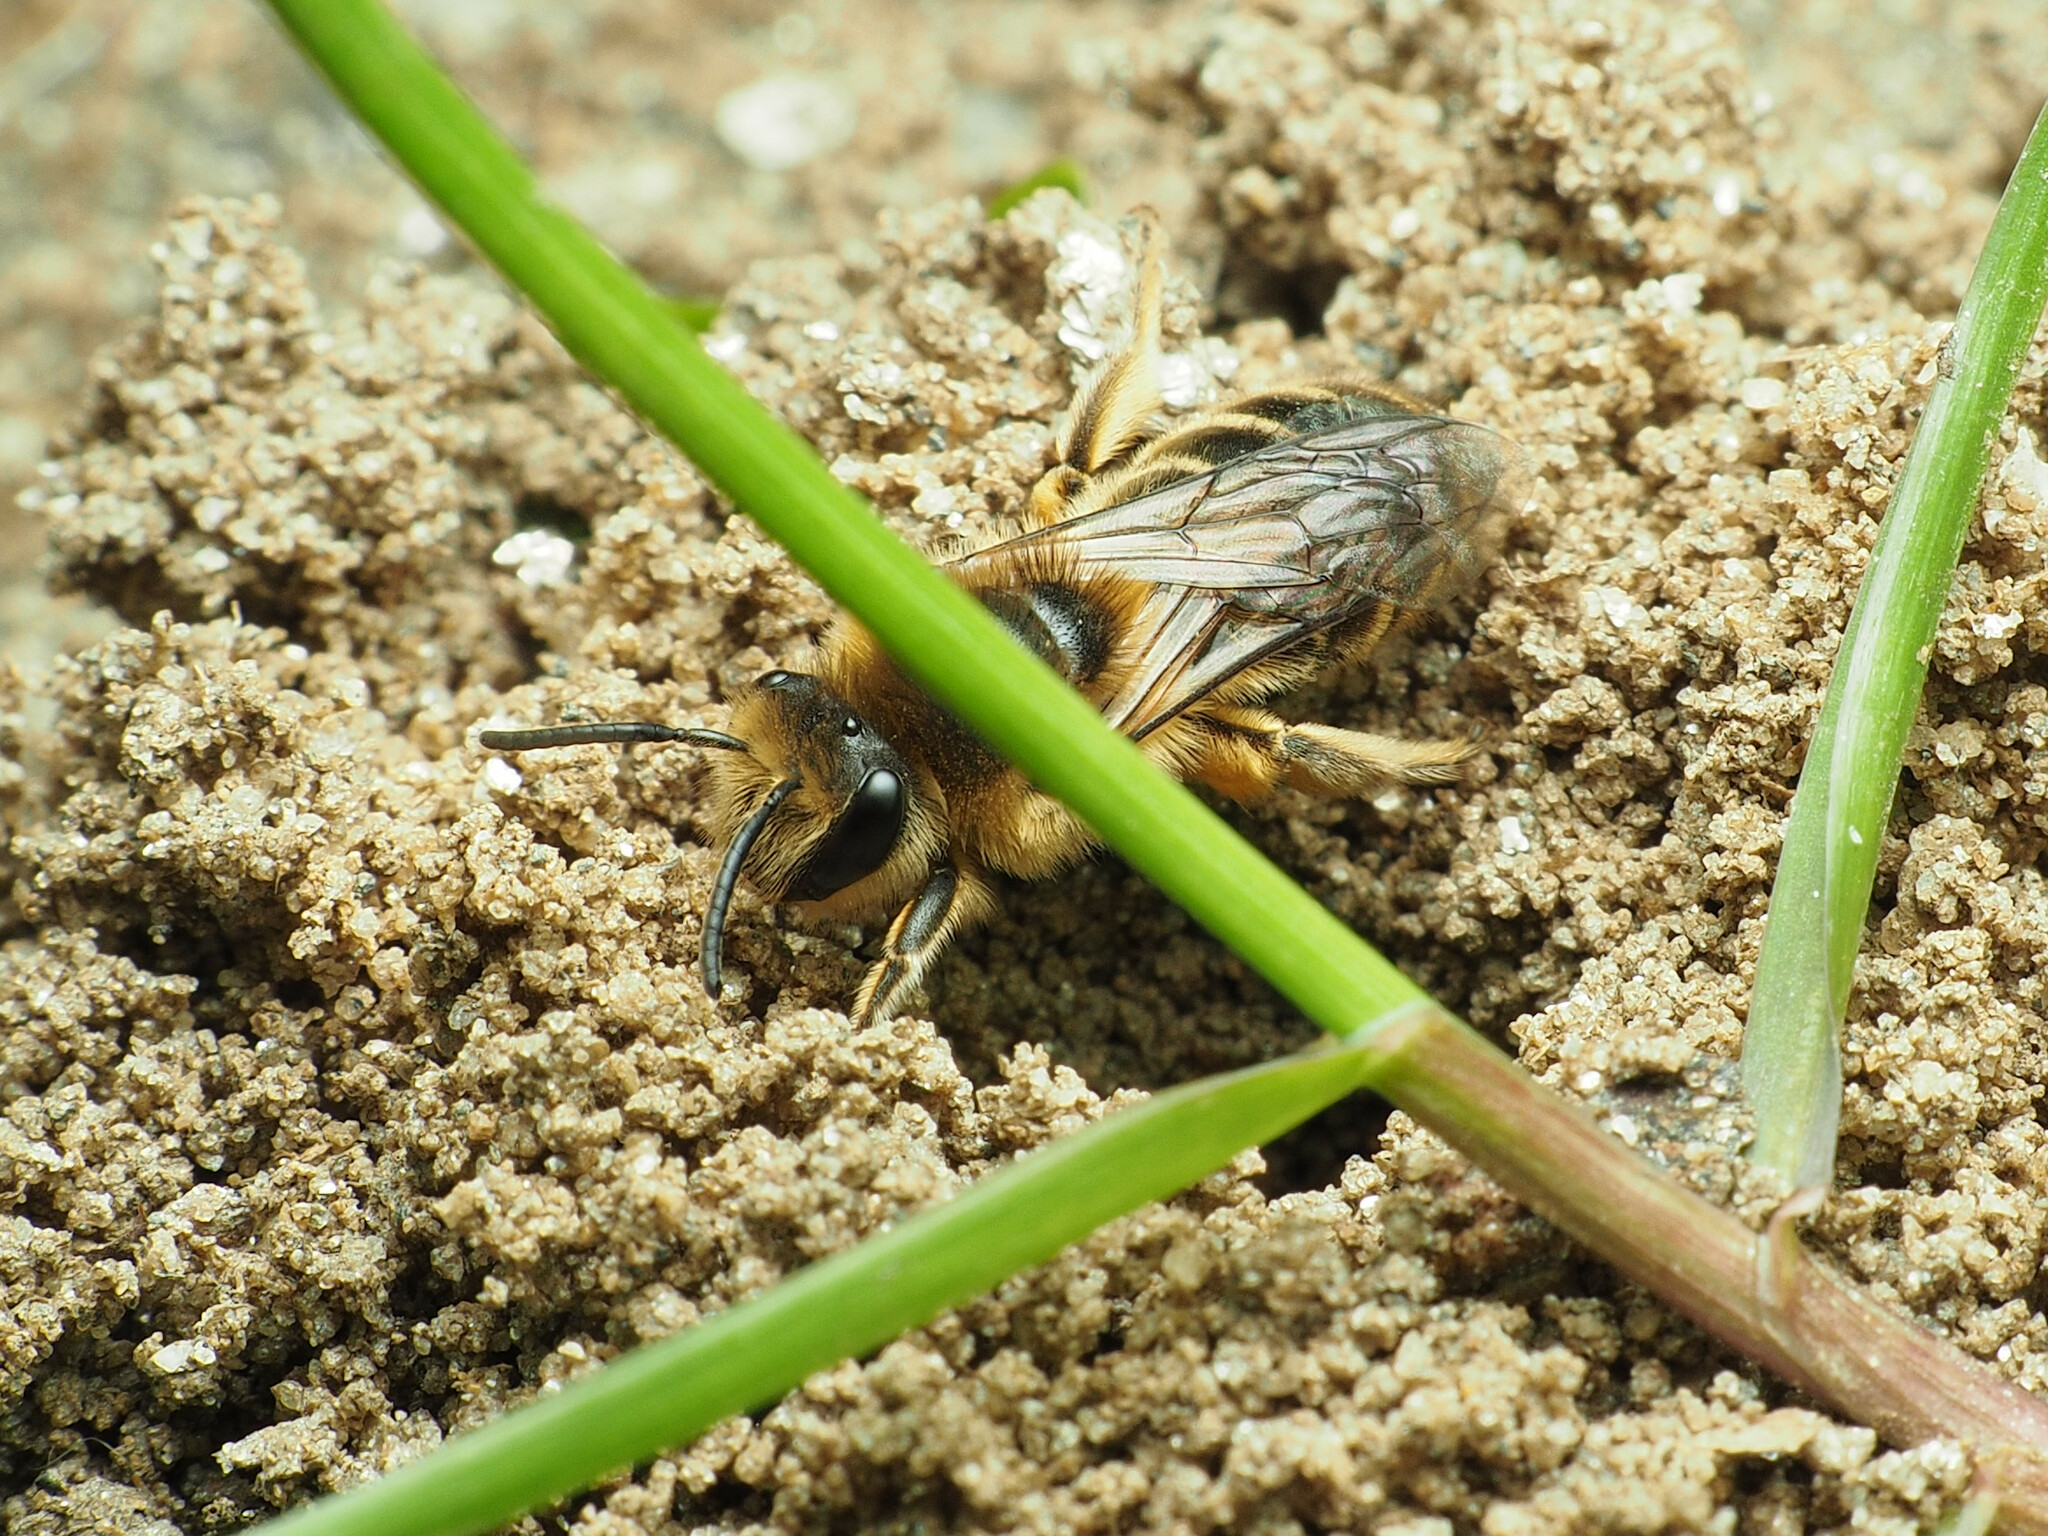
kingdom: Animalia
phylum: Arthropoda
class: Insecta
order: Hymenoptera
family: Colletidae
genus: Colletes
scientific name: Colletes inaequalis
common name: Unequal cellophane bee
